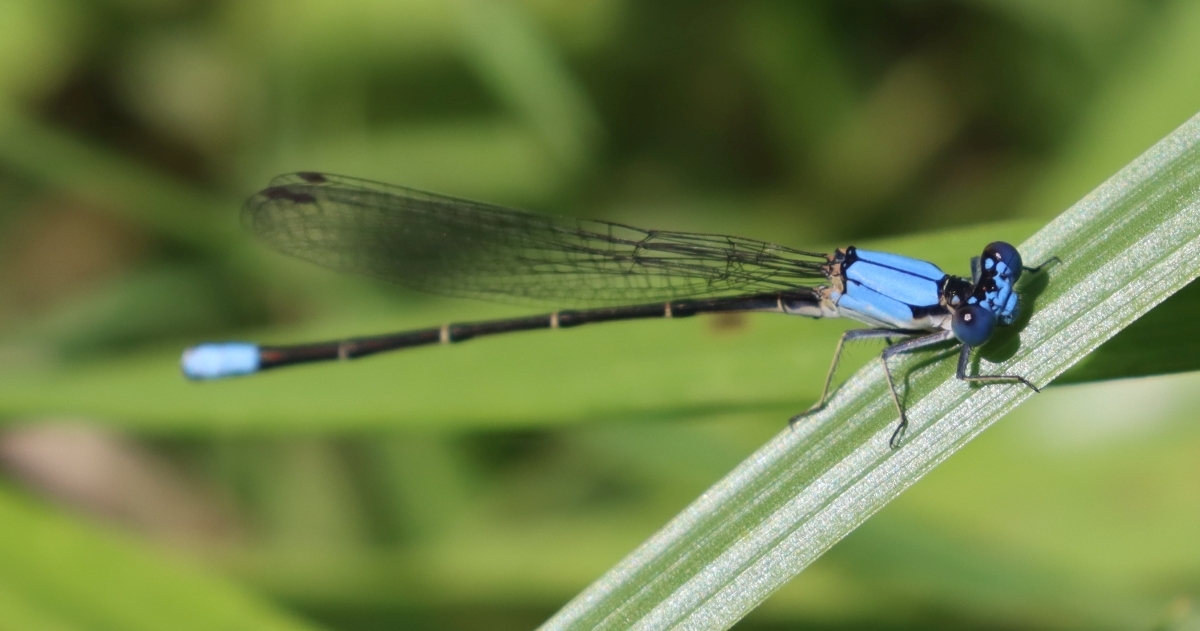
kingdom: Animalia
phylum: Arthropoda
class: Insecta
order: Odonata
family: Coenagrionidae
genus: Argia
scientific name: Argia apicalis
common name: Blue-fronted dancer
